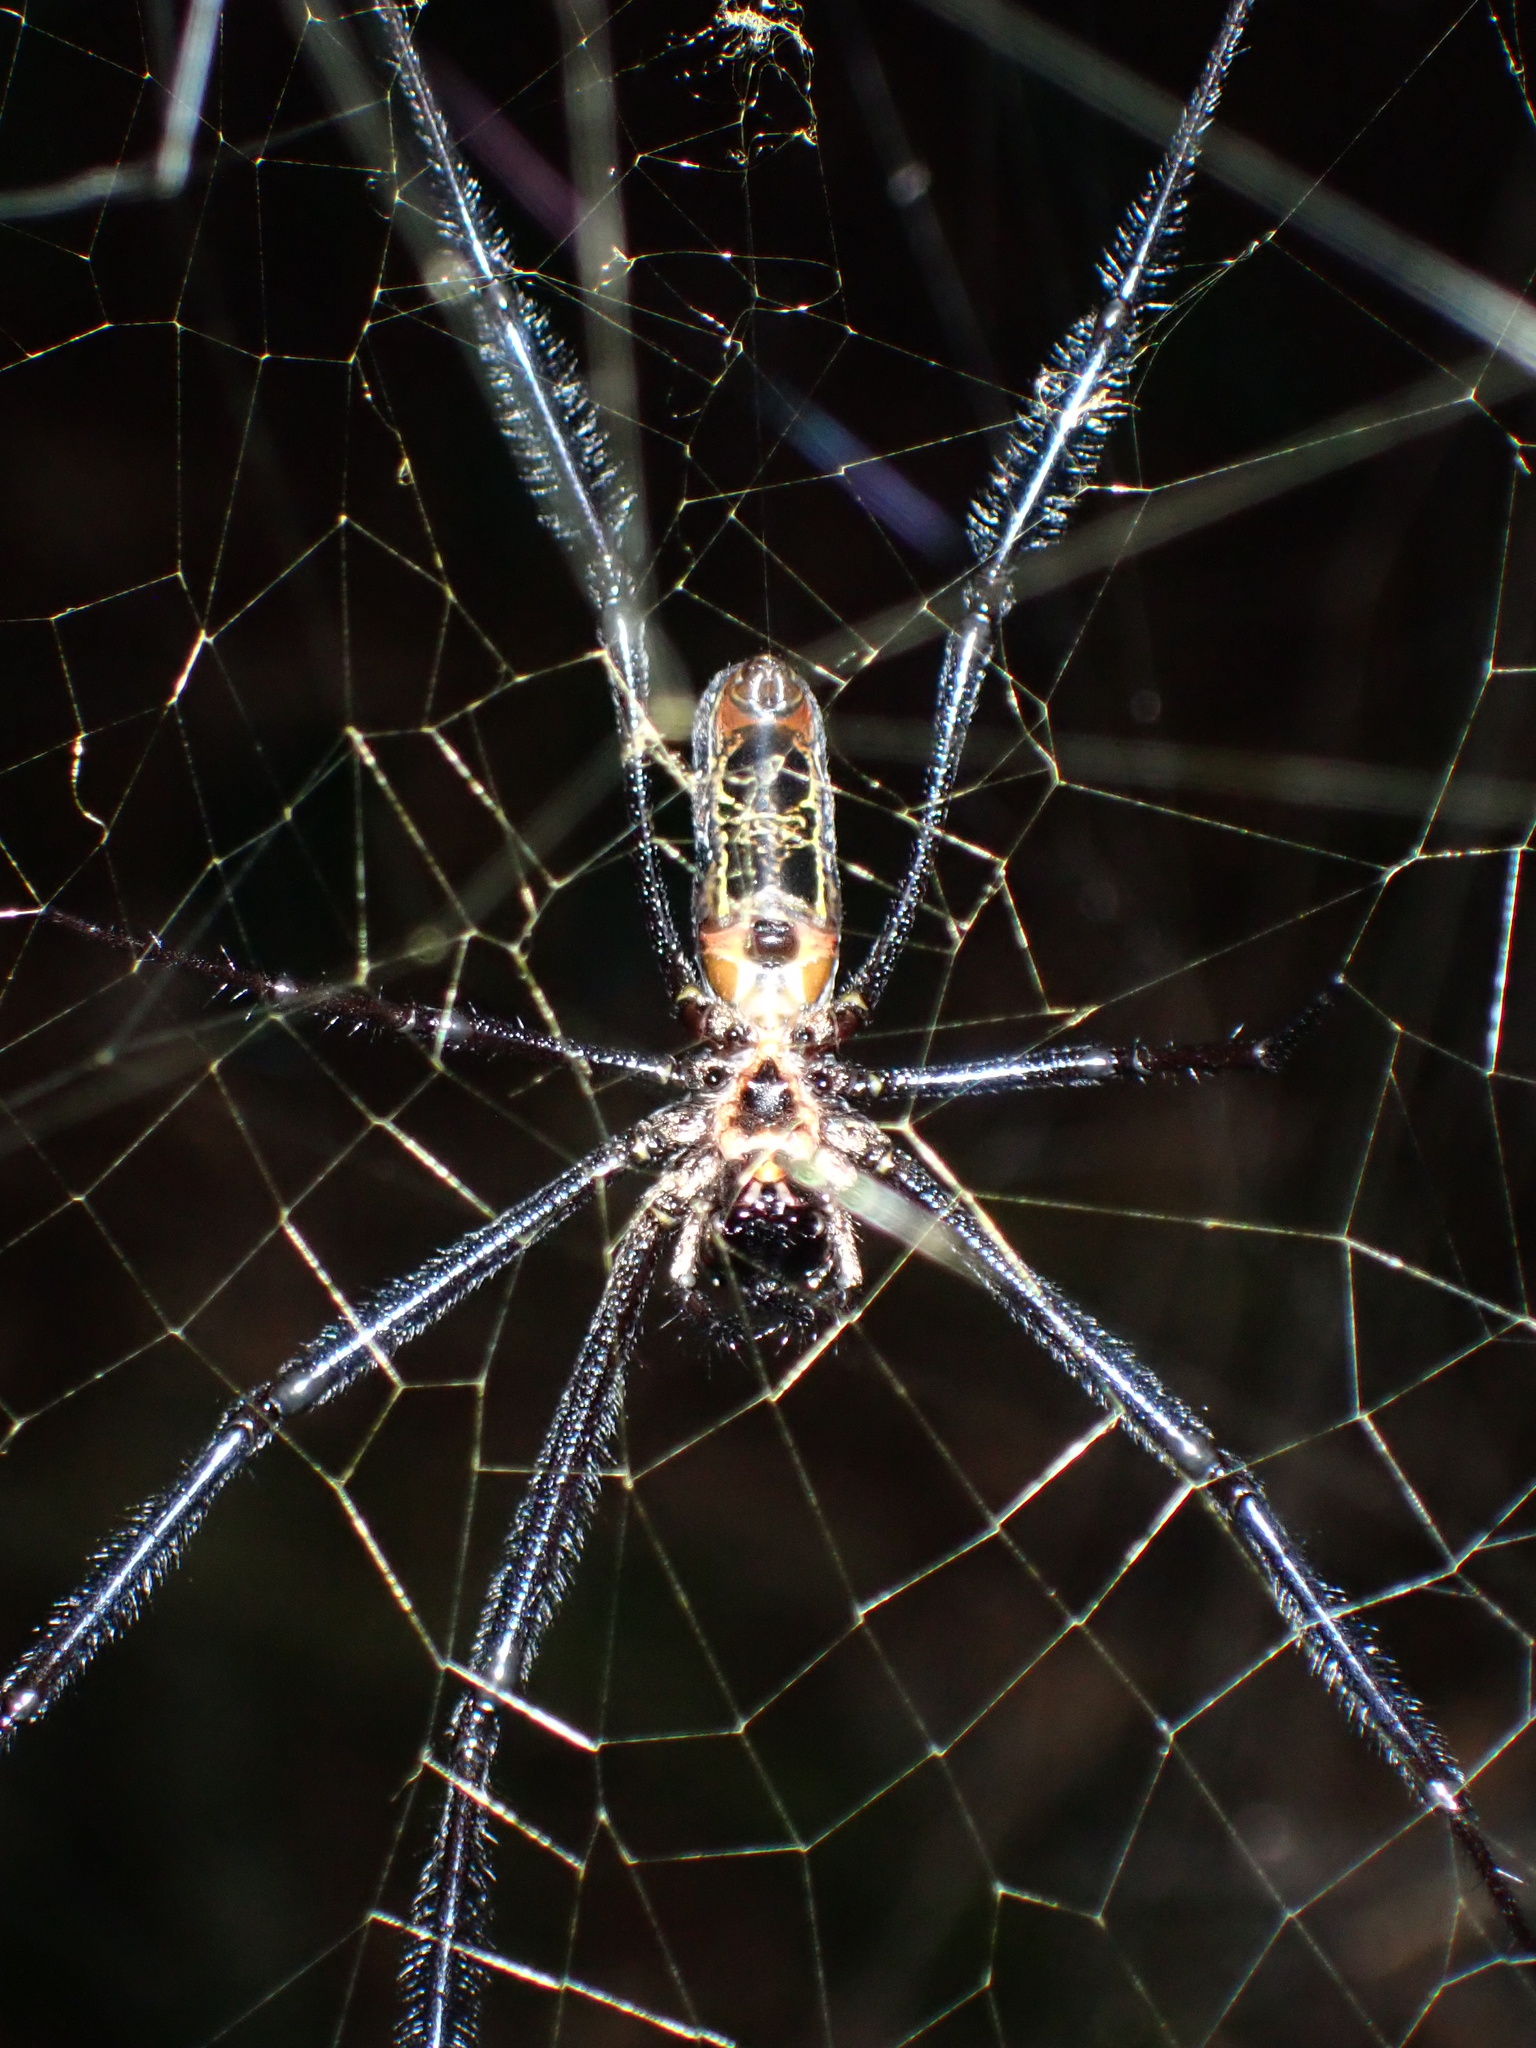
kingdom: Animalia
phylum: Arthropoda
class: Arachnida
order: Araneae
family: Araneidae
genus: Trichonephila
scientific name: Trichonephila fenestrata
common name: Hairy golden orb weaver
